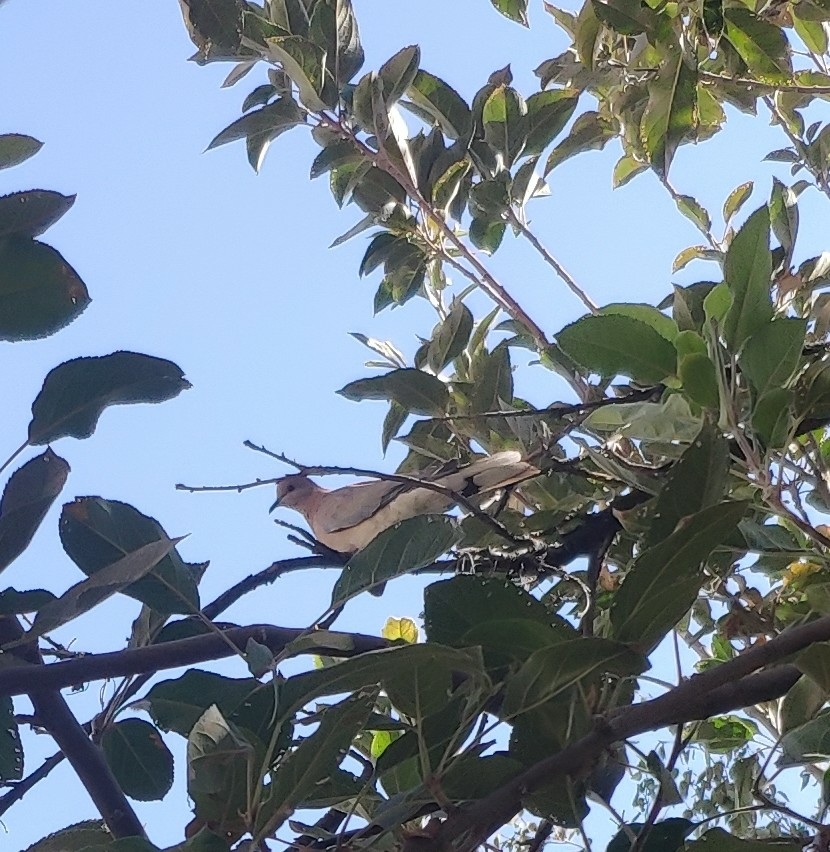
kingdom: Animalia
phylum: Chordata
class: Aves
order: Columbiformes
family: Columbidae
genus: Spilopelia
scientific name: Spilopelia senegalensis
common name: Laughing dove
